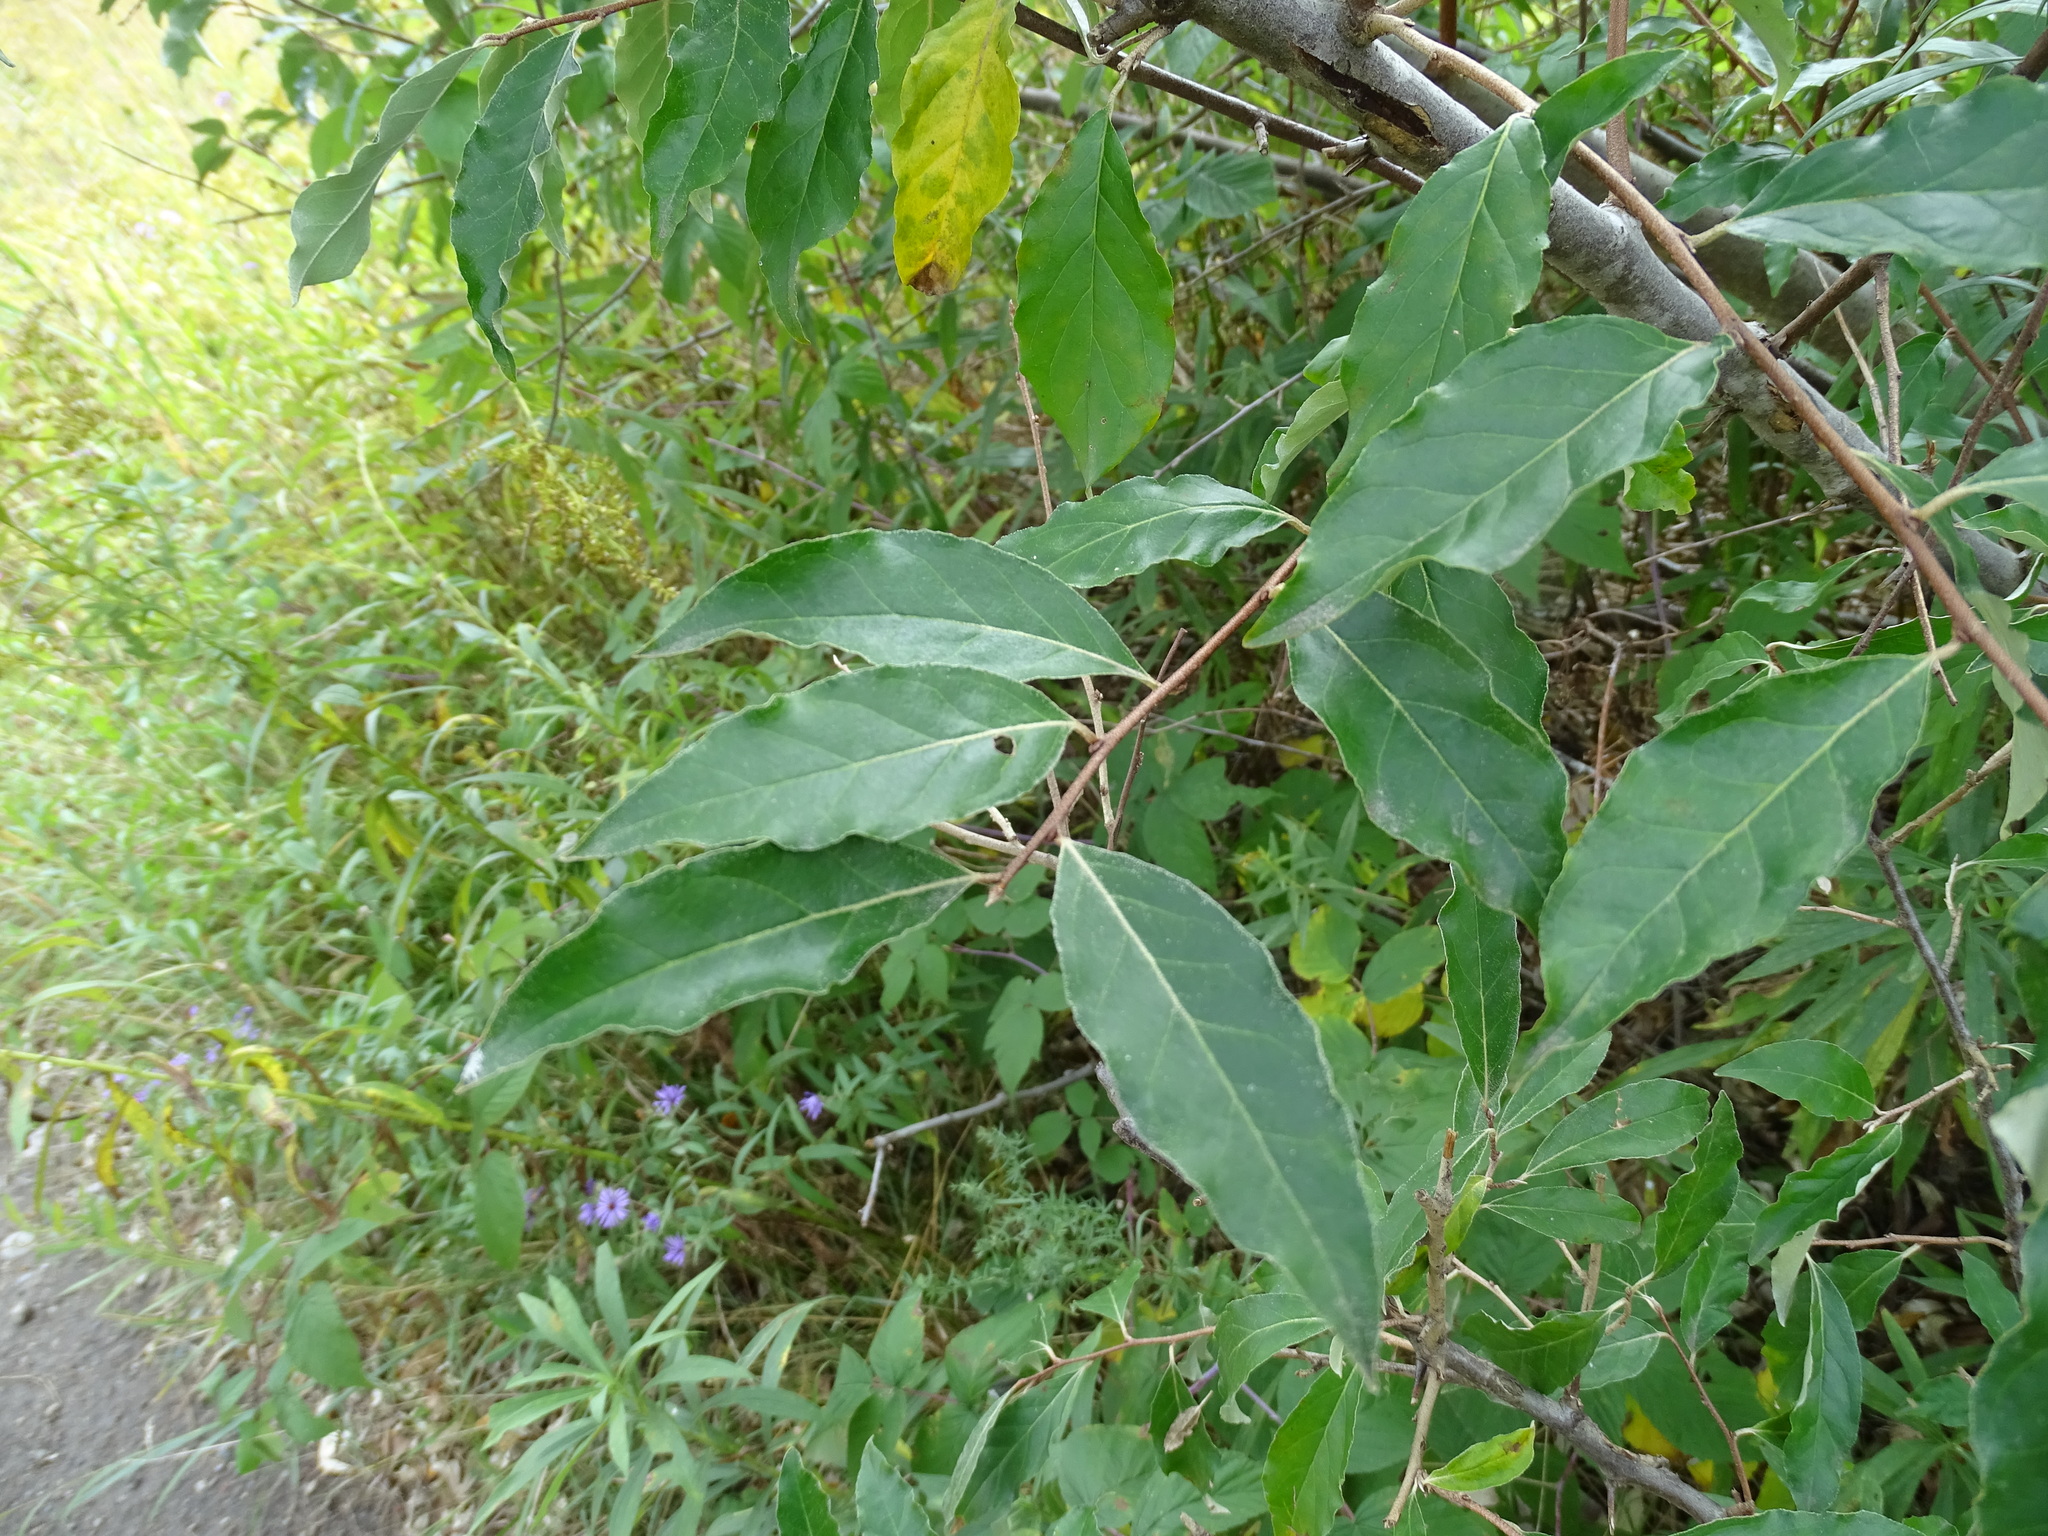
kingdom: Plantae
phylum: Tracheophyta
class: Magnoliopsida
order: Rosales
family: Elaeagnaceae
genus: Elaeagnus
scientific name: Elaeagnus umbellata
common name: Autumn olive
